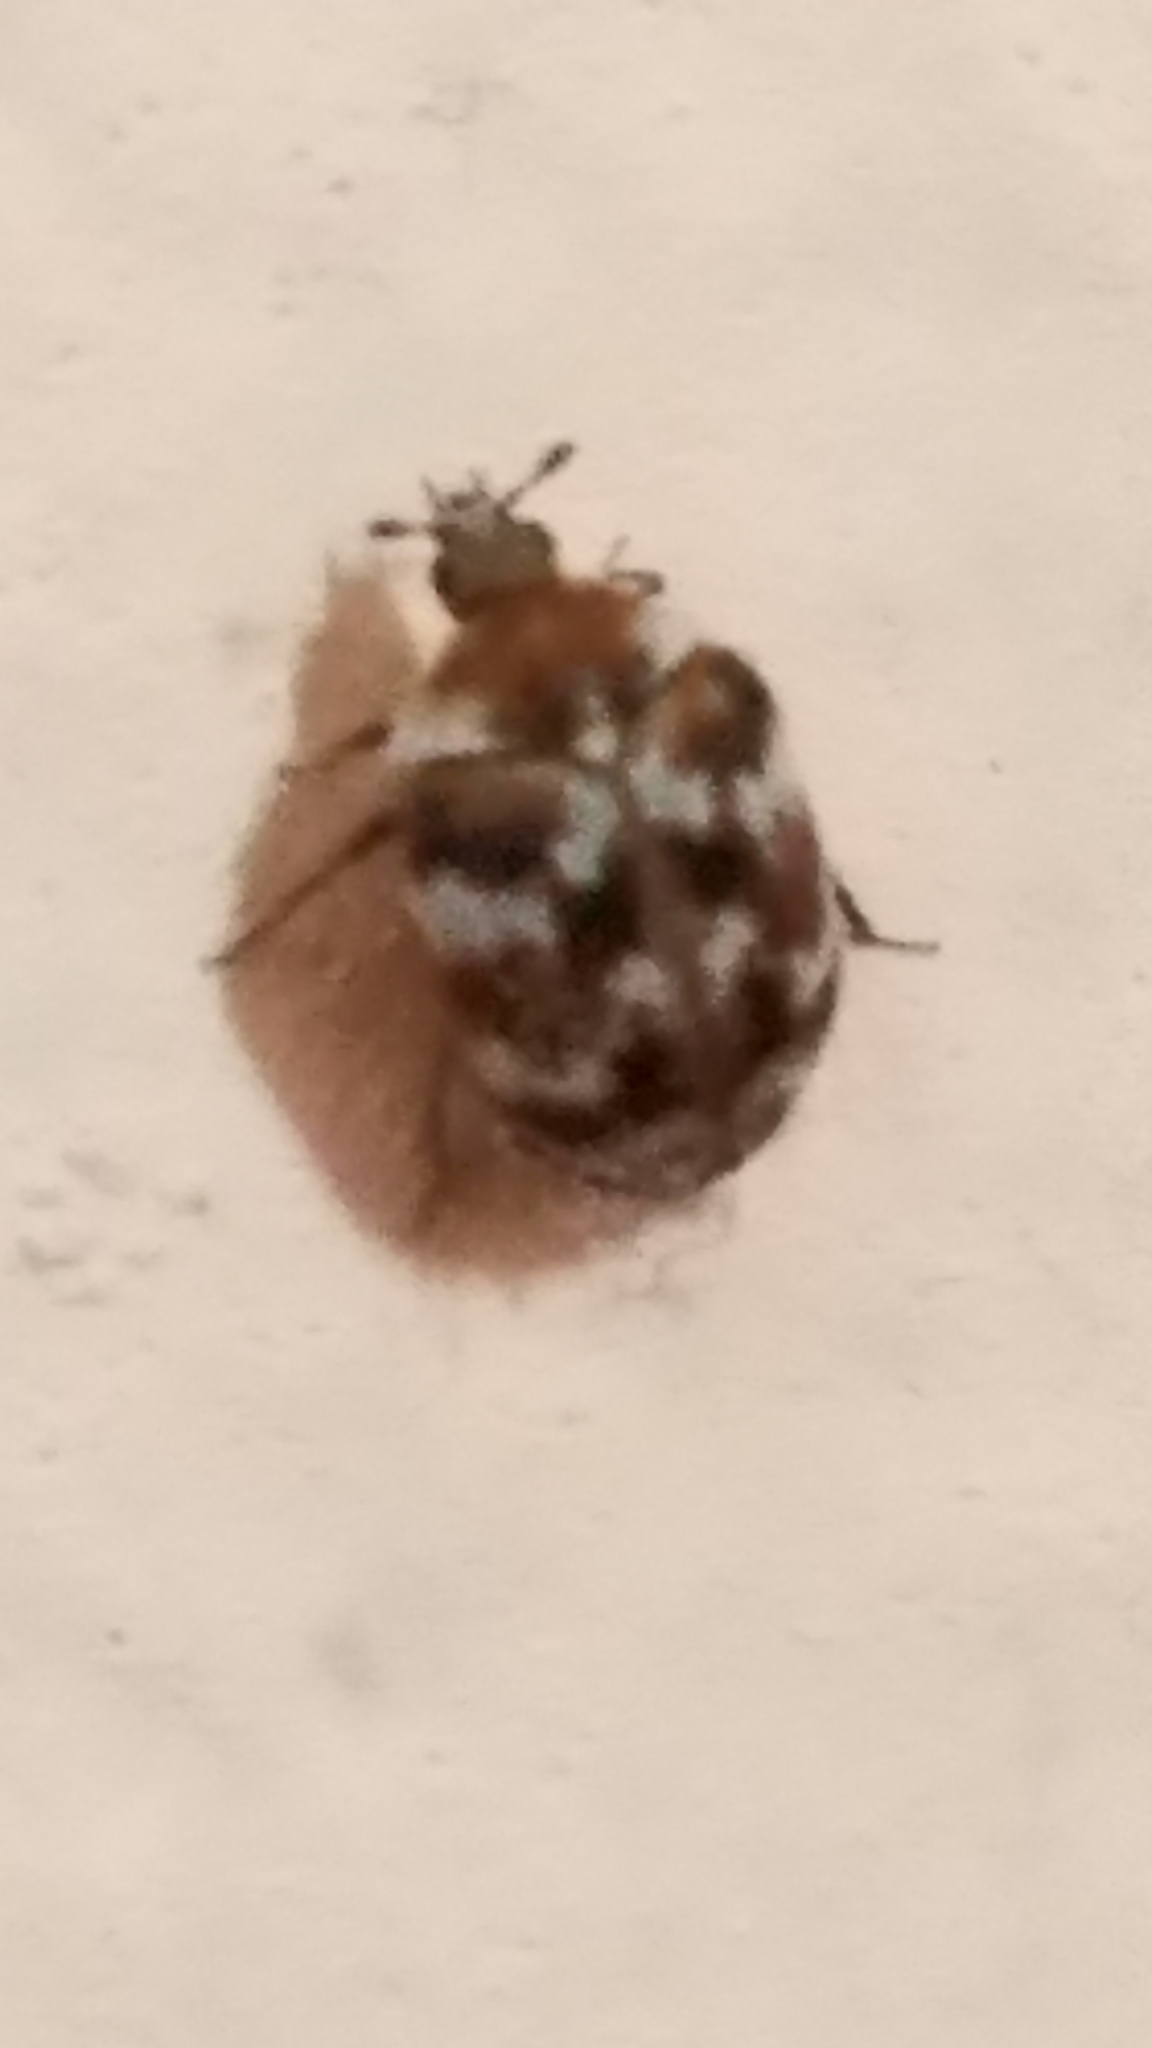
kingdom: Animalia
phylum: Arthropoda
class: Insecta
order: Coleoptera
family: Dermestidae
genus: Anthrenus
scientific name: Anthrenus verbasci
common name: Varied carpet beetle
